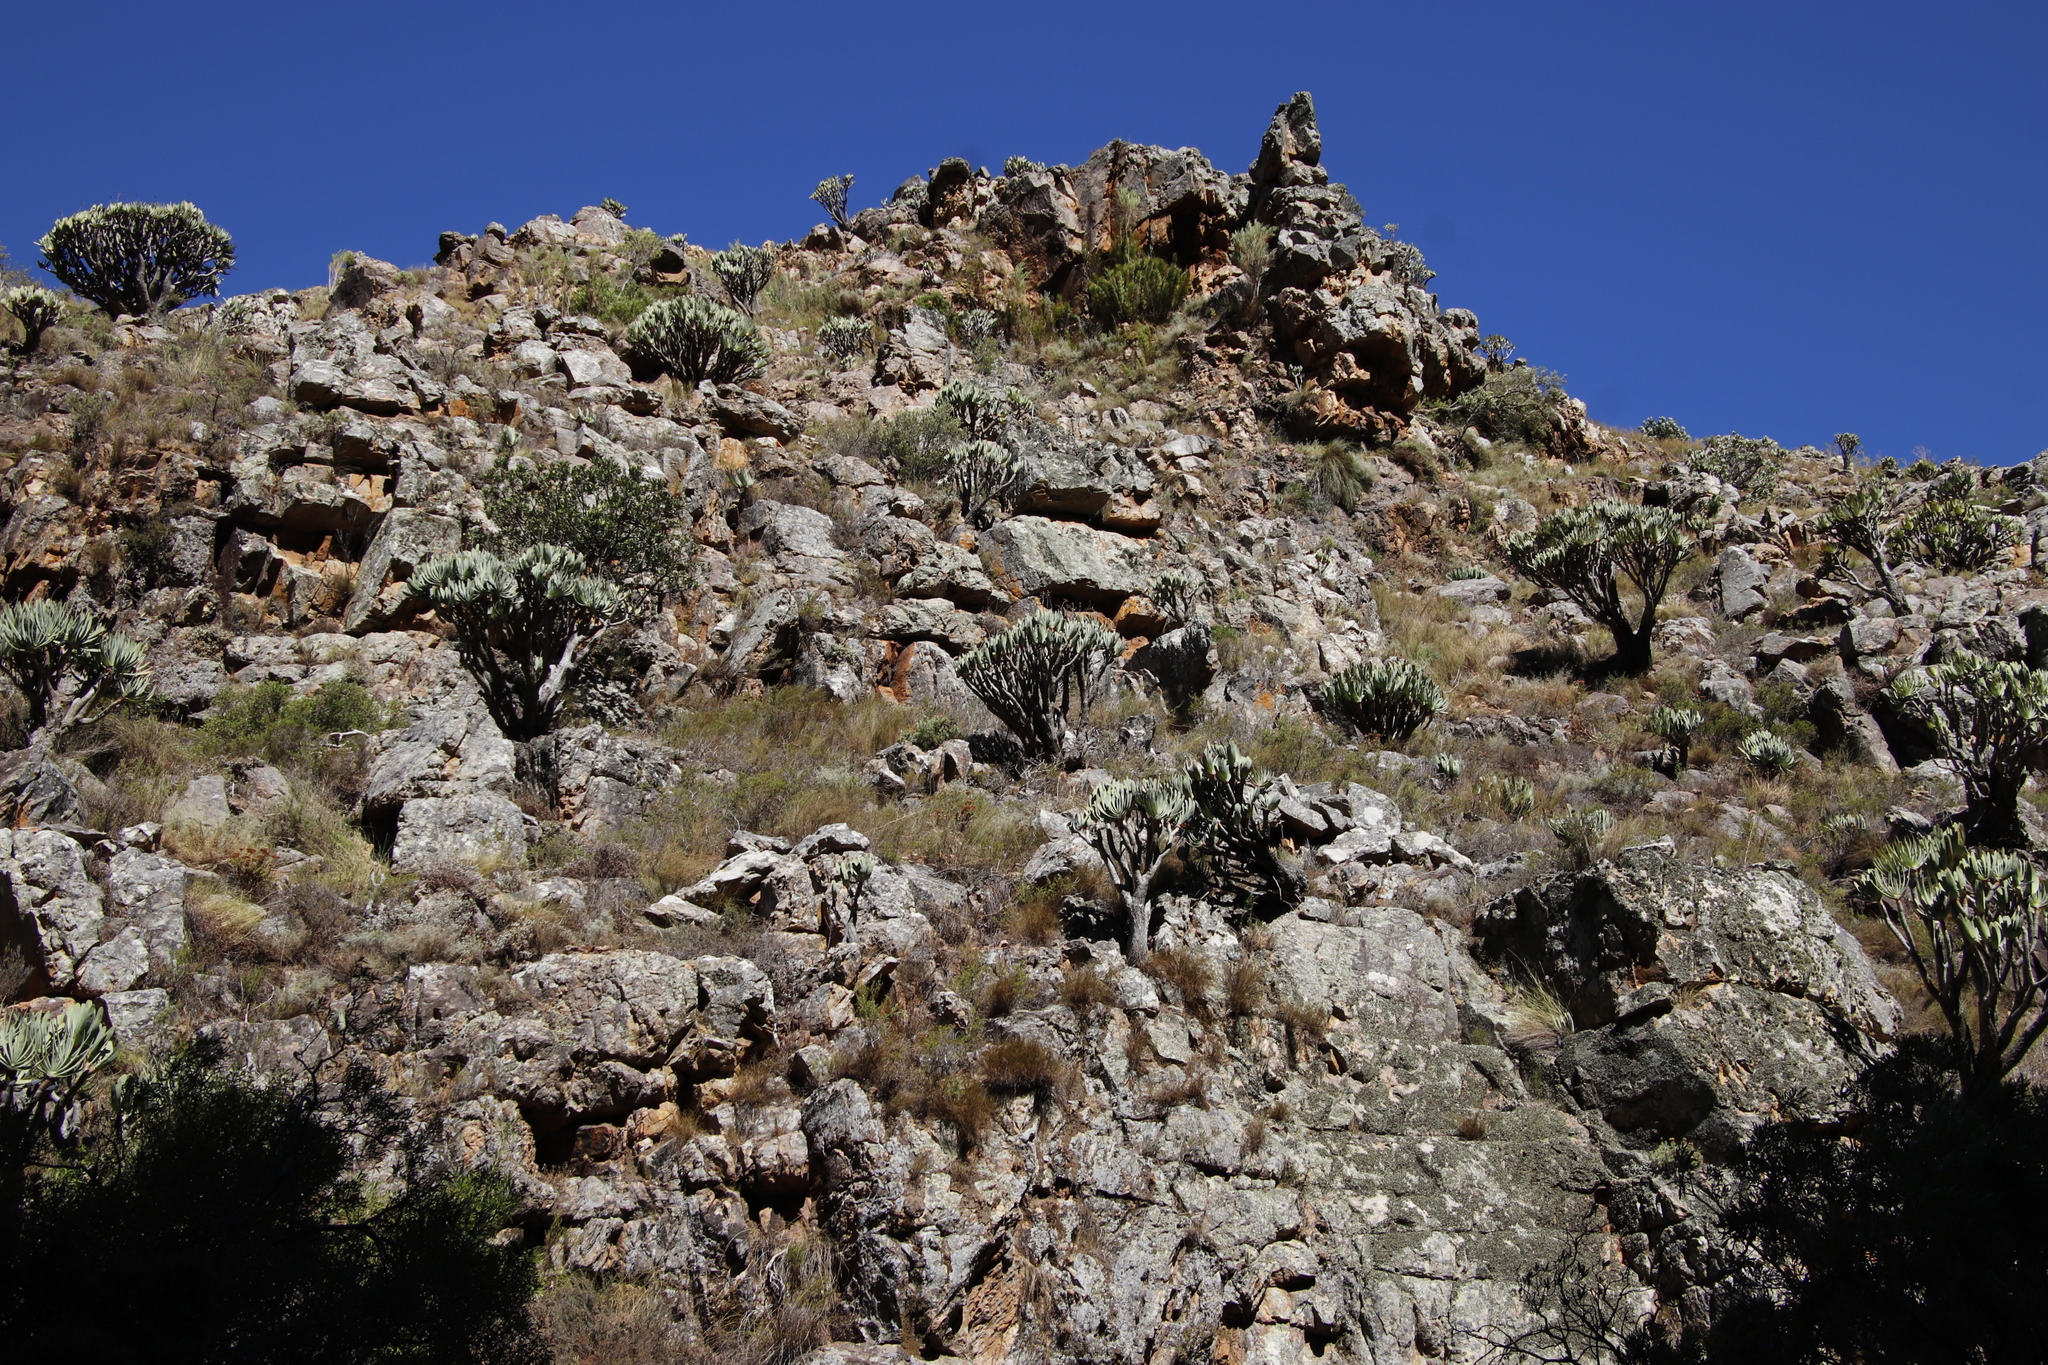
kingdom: Plantae
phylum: Tracheophyta
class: Liliopsida
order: Asparagales
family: Asphodelaceae
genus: Kumara
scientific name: Kumara plicatilis
